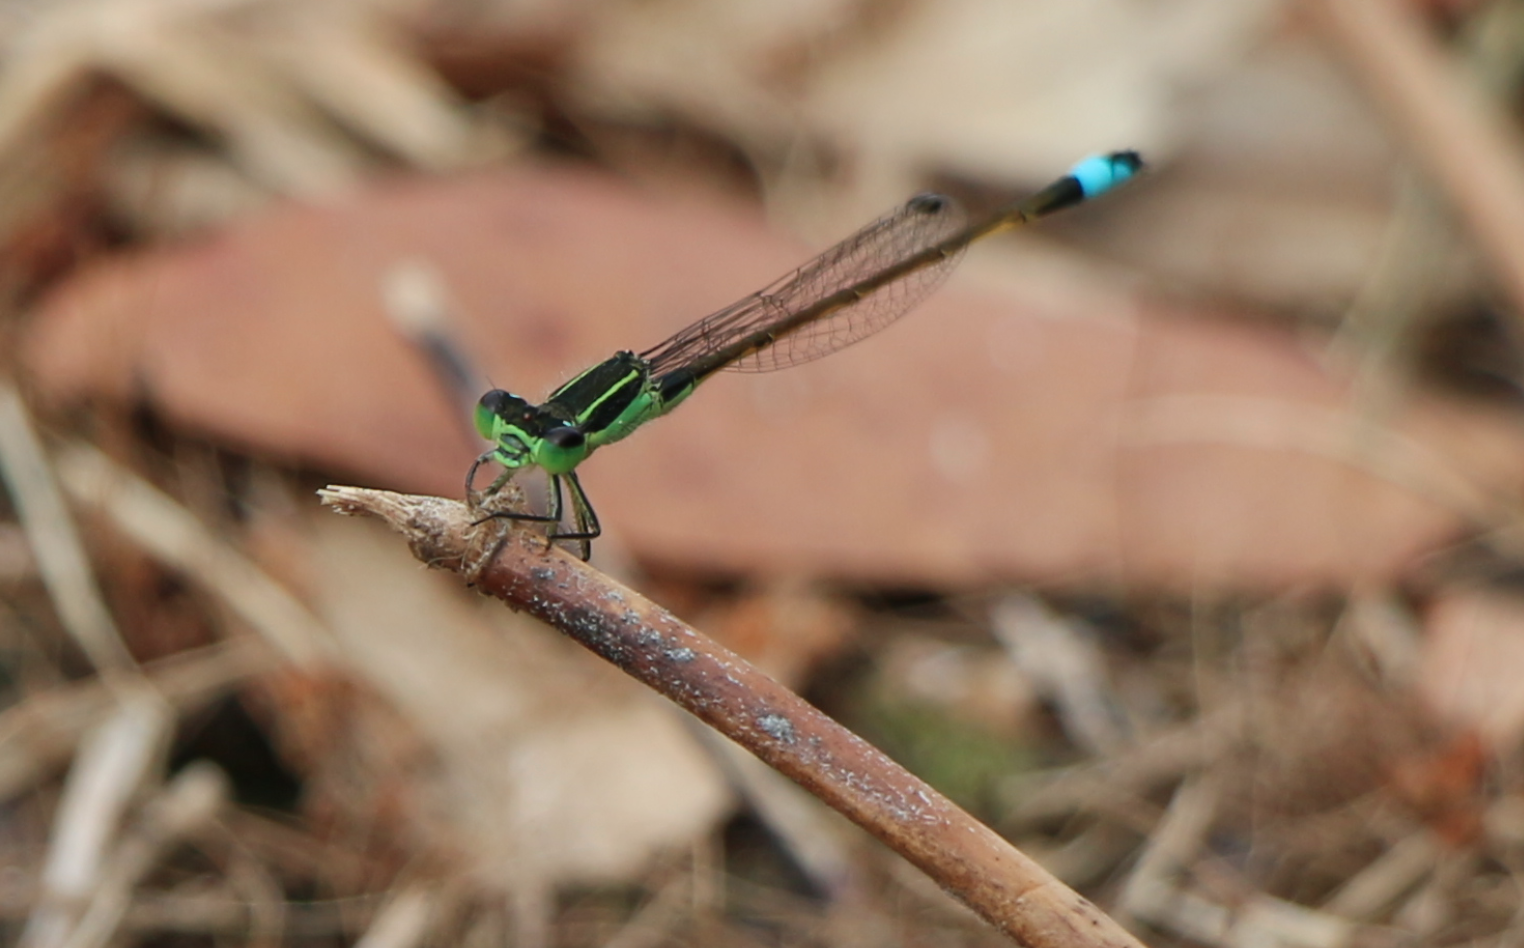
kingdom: Animalia
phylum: Arthropoda
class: Insecta
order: Odonata
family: Coenagrionidae
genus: Ischnura
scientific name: Ischnura ramburii
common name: Rambur's forktail
